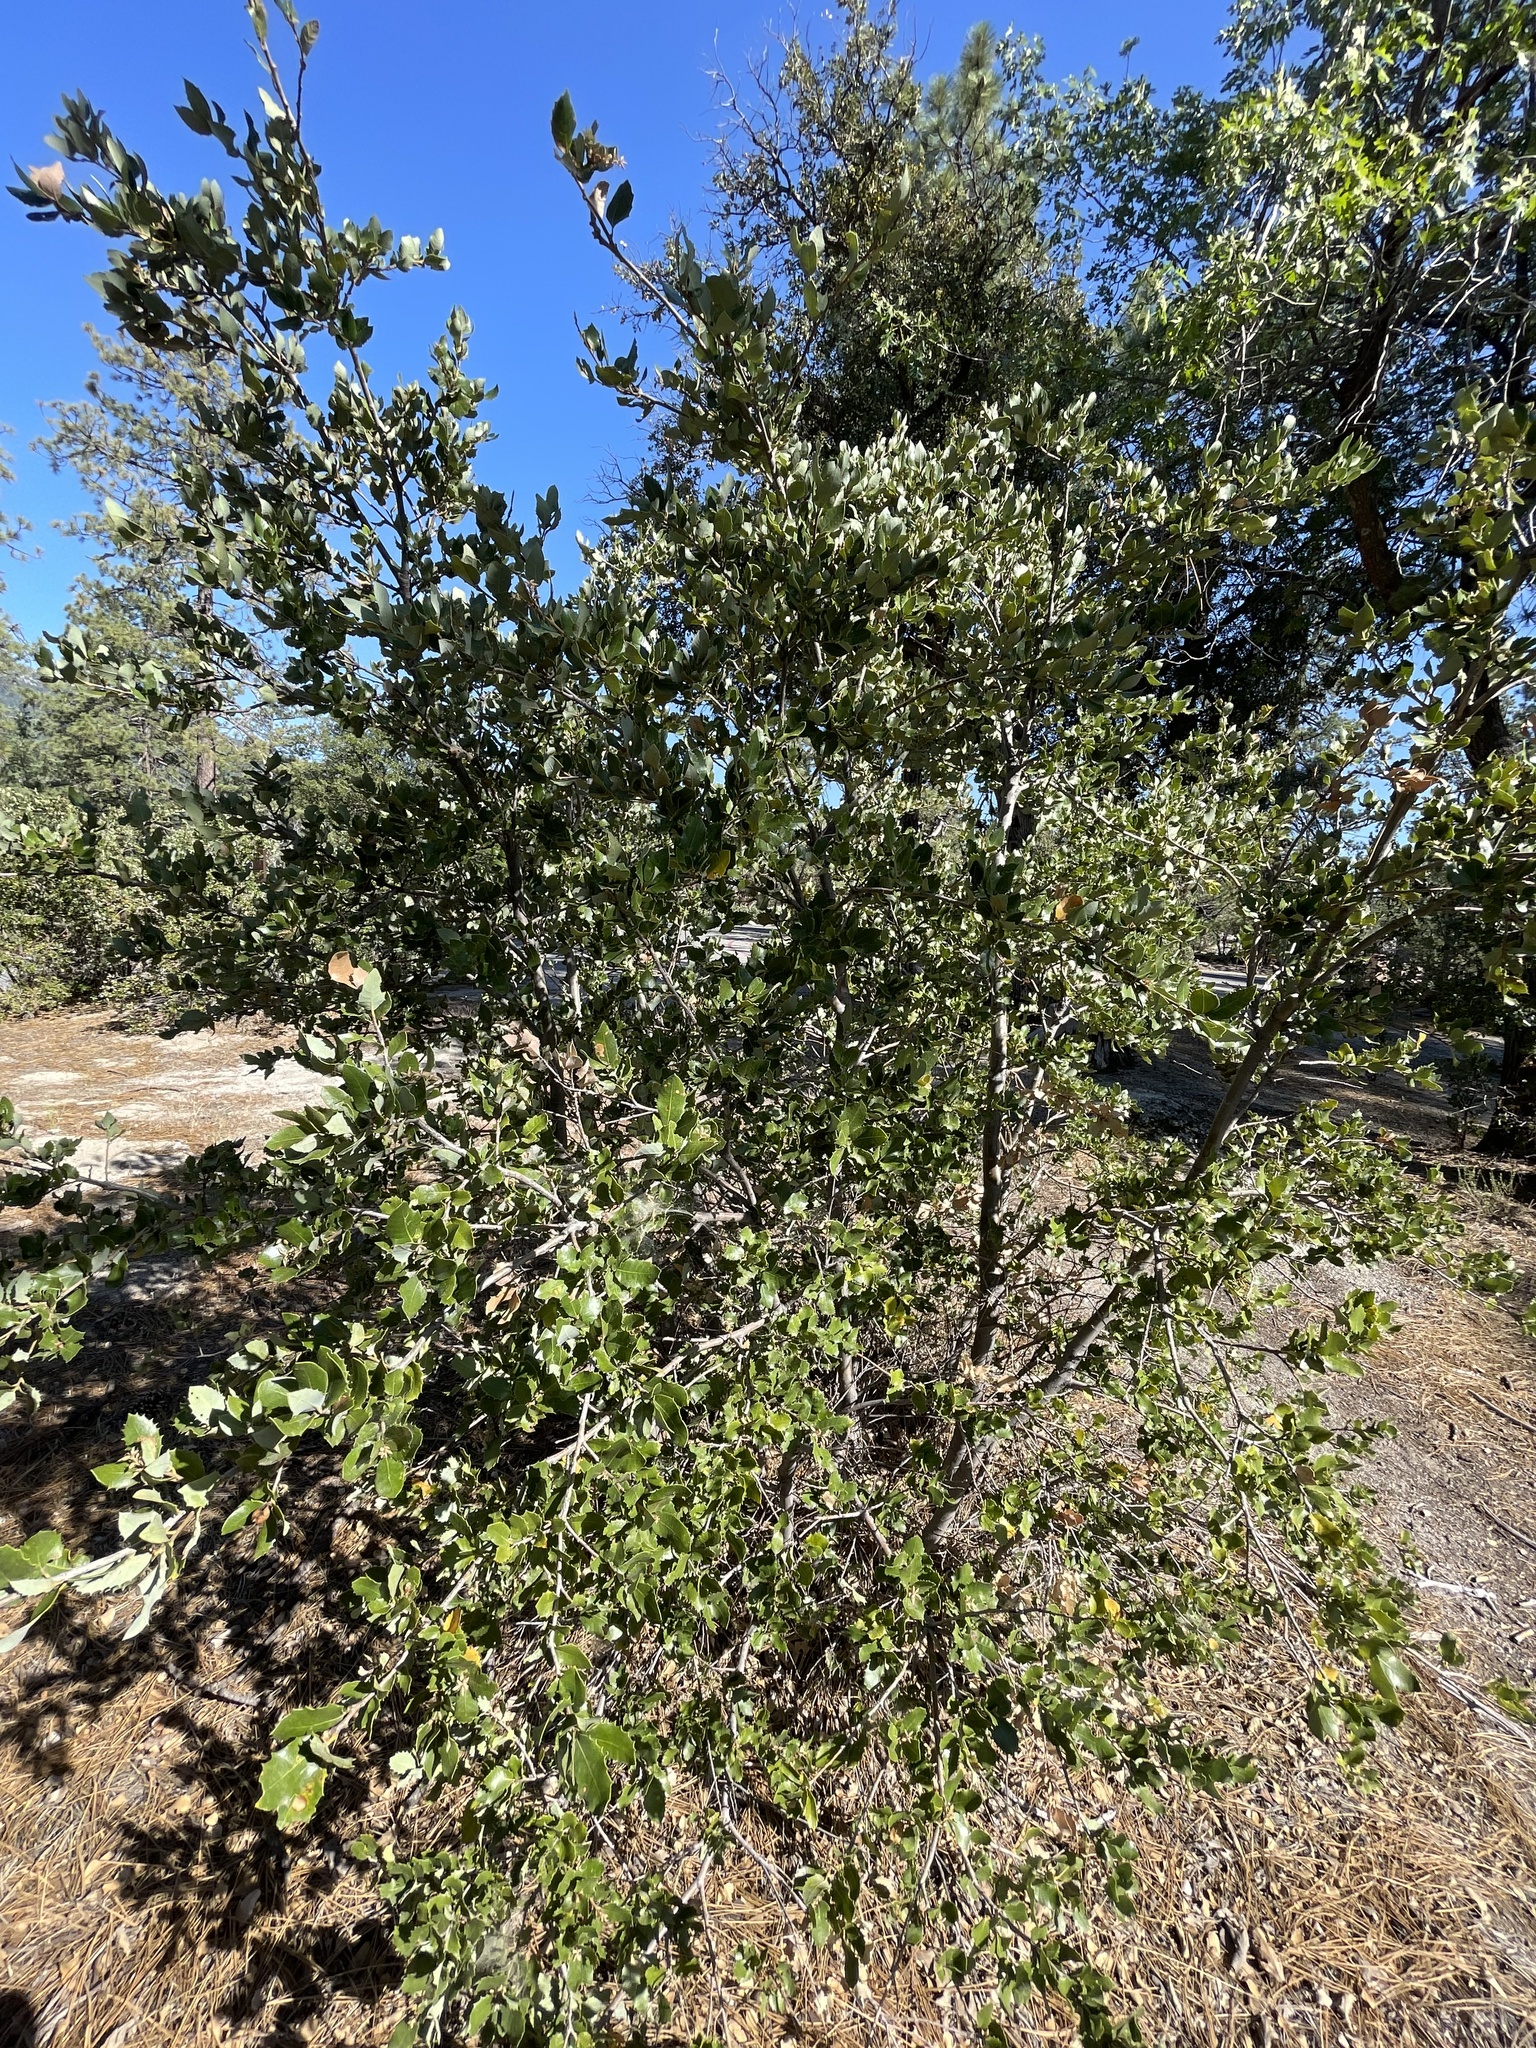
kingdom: Plantae
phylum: Tracheophyta
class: Magnoliopsida
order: Fagales
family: Fagaceae
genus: Quercus
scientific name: Quercus chrysolepis
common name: Canyon live oak
